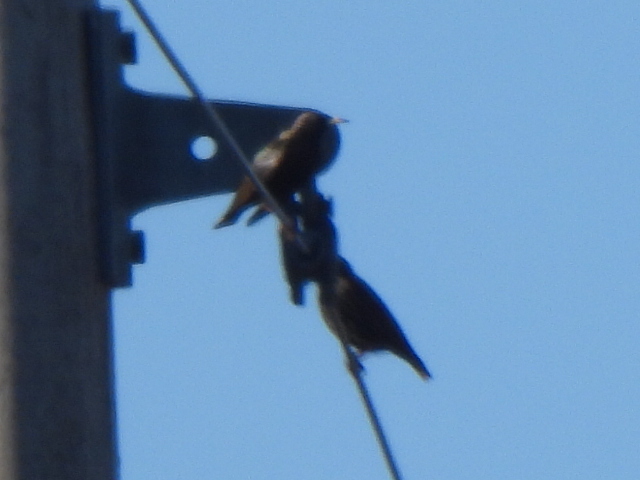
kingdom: Animalia
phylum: Chordata
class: Aves
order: Passeriformes
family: Sturnidae
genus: Sturnus
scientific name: Sturnus vulgaris
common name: Common starling
